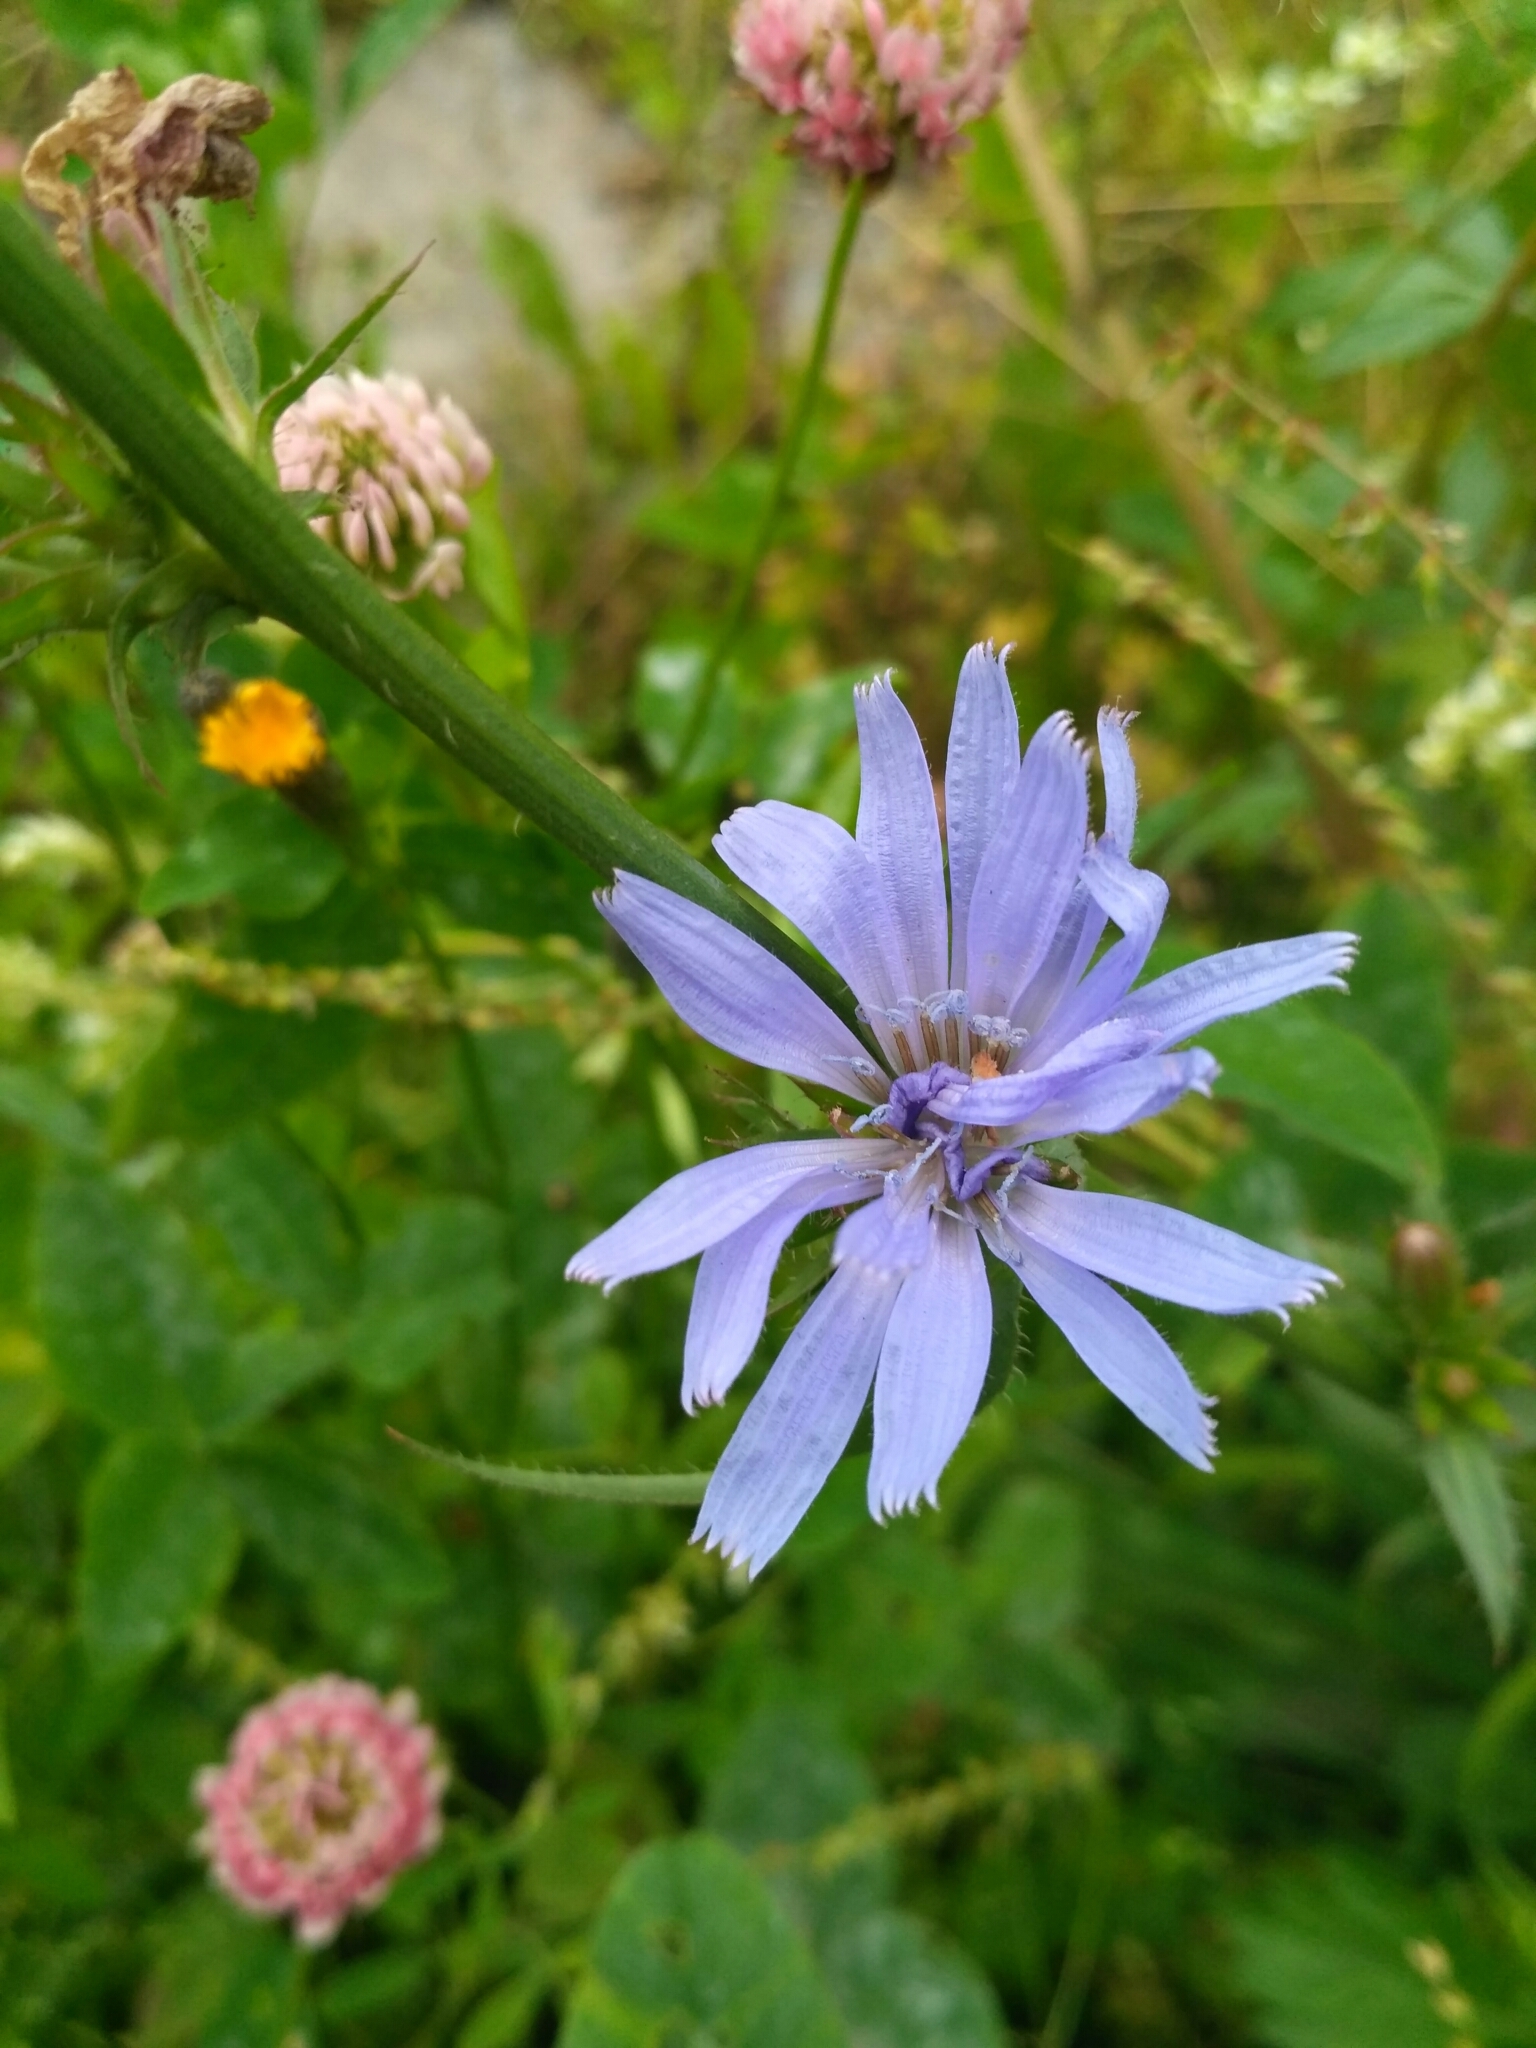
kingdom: Plantae
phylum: Tracheophyta
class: Magnoliopsida
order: Asterales
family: Asteraceae
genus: Cichorium
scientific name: Cichorium intybus
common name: Chicory
